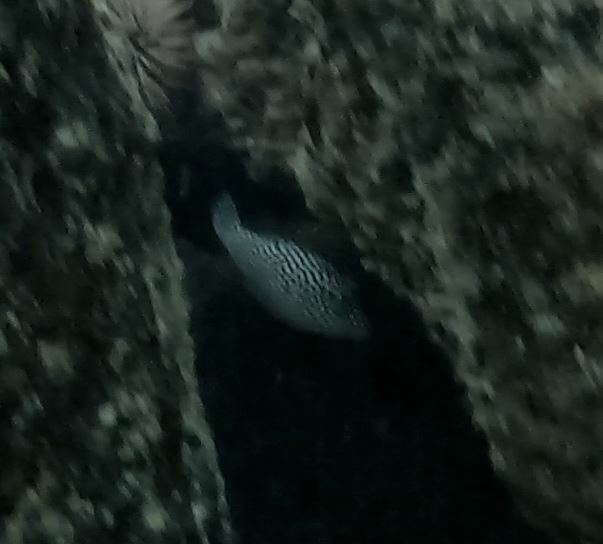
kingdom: Animalia
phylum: Chordata
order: Tetraodontiformes
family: Tetraodontidae
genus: Canthigaster
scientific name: Canthigaster jactator
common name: Hawaiian whitespotted toby
